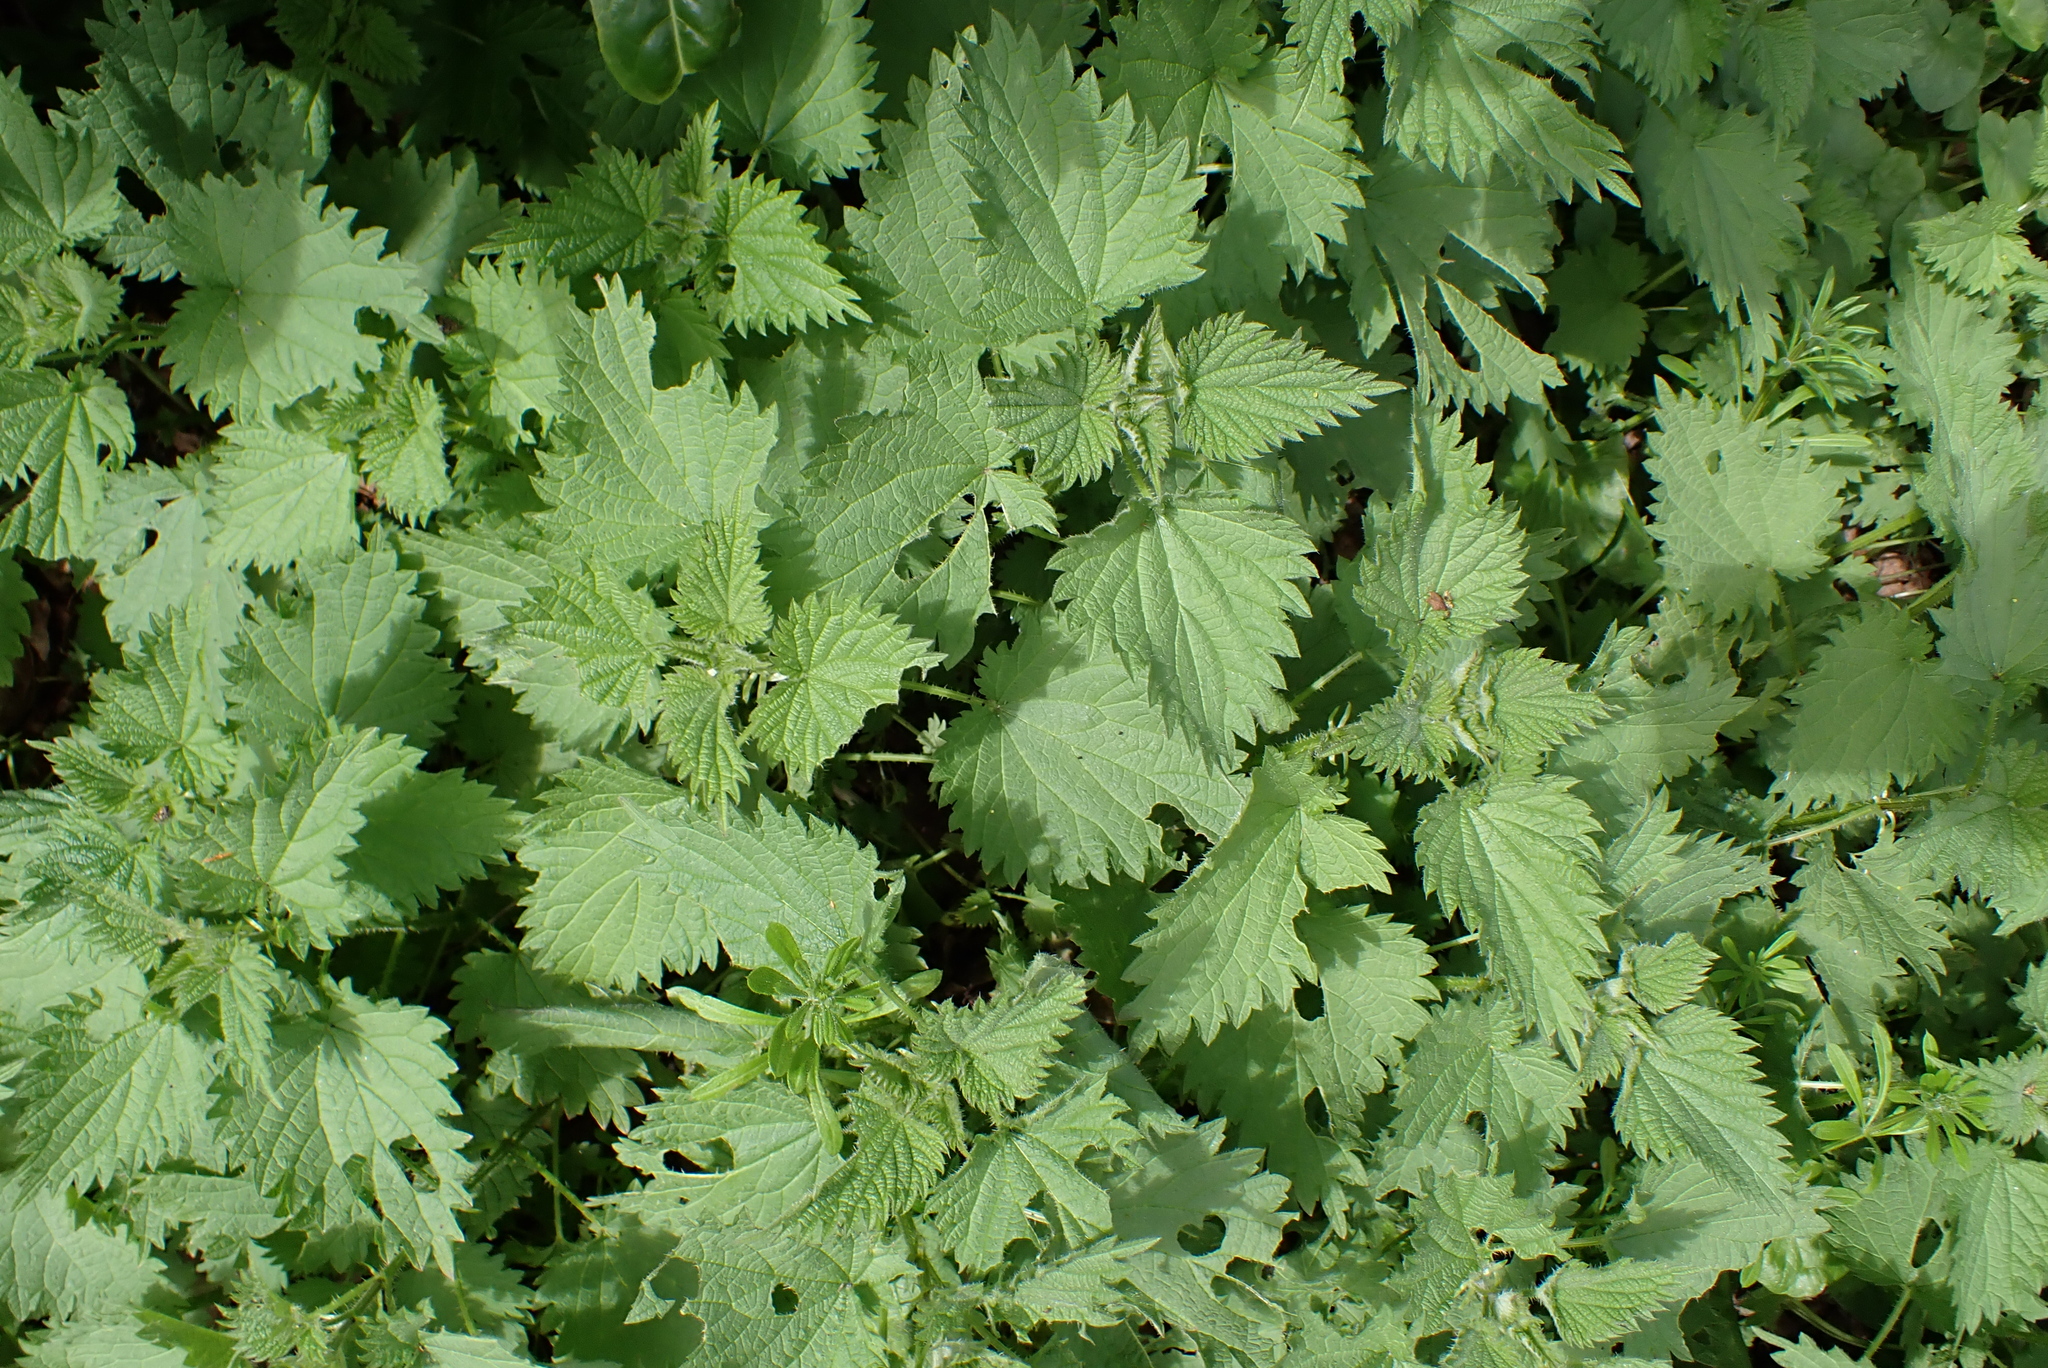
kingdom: Plantae
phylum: Tracheophyta
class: Magnoliopsida
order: Rosales
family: Urticaceae
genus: Urtica
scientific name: Urtica dioica
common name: Common nettle
